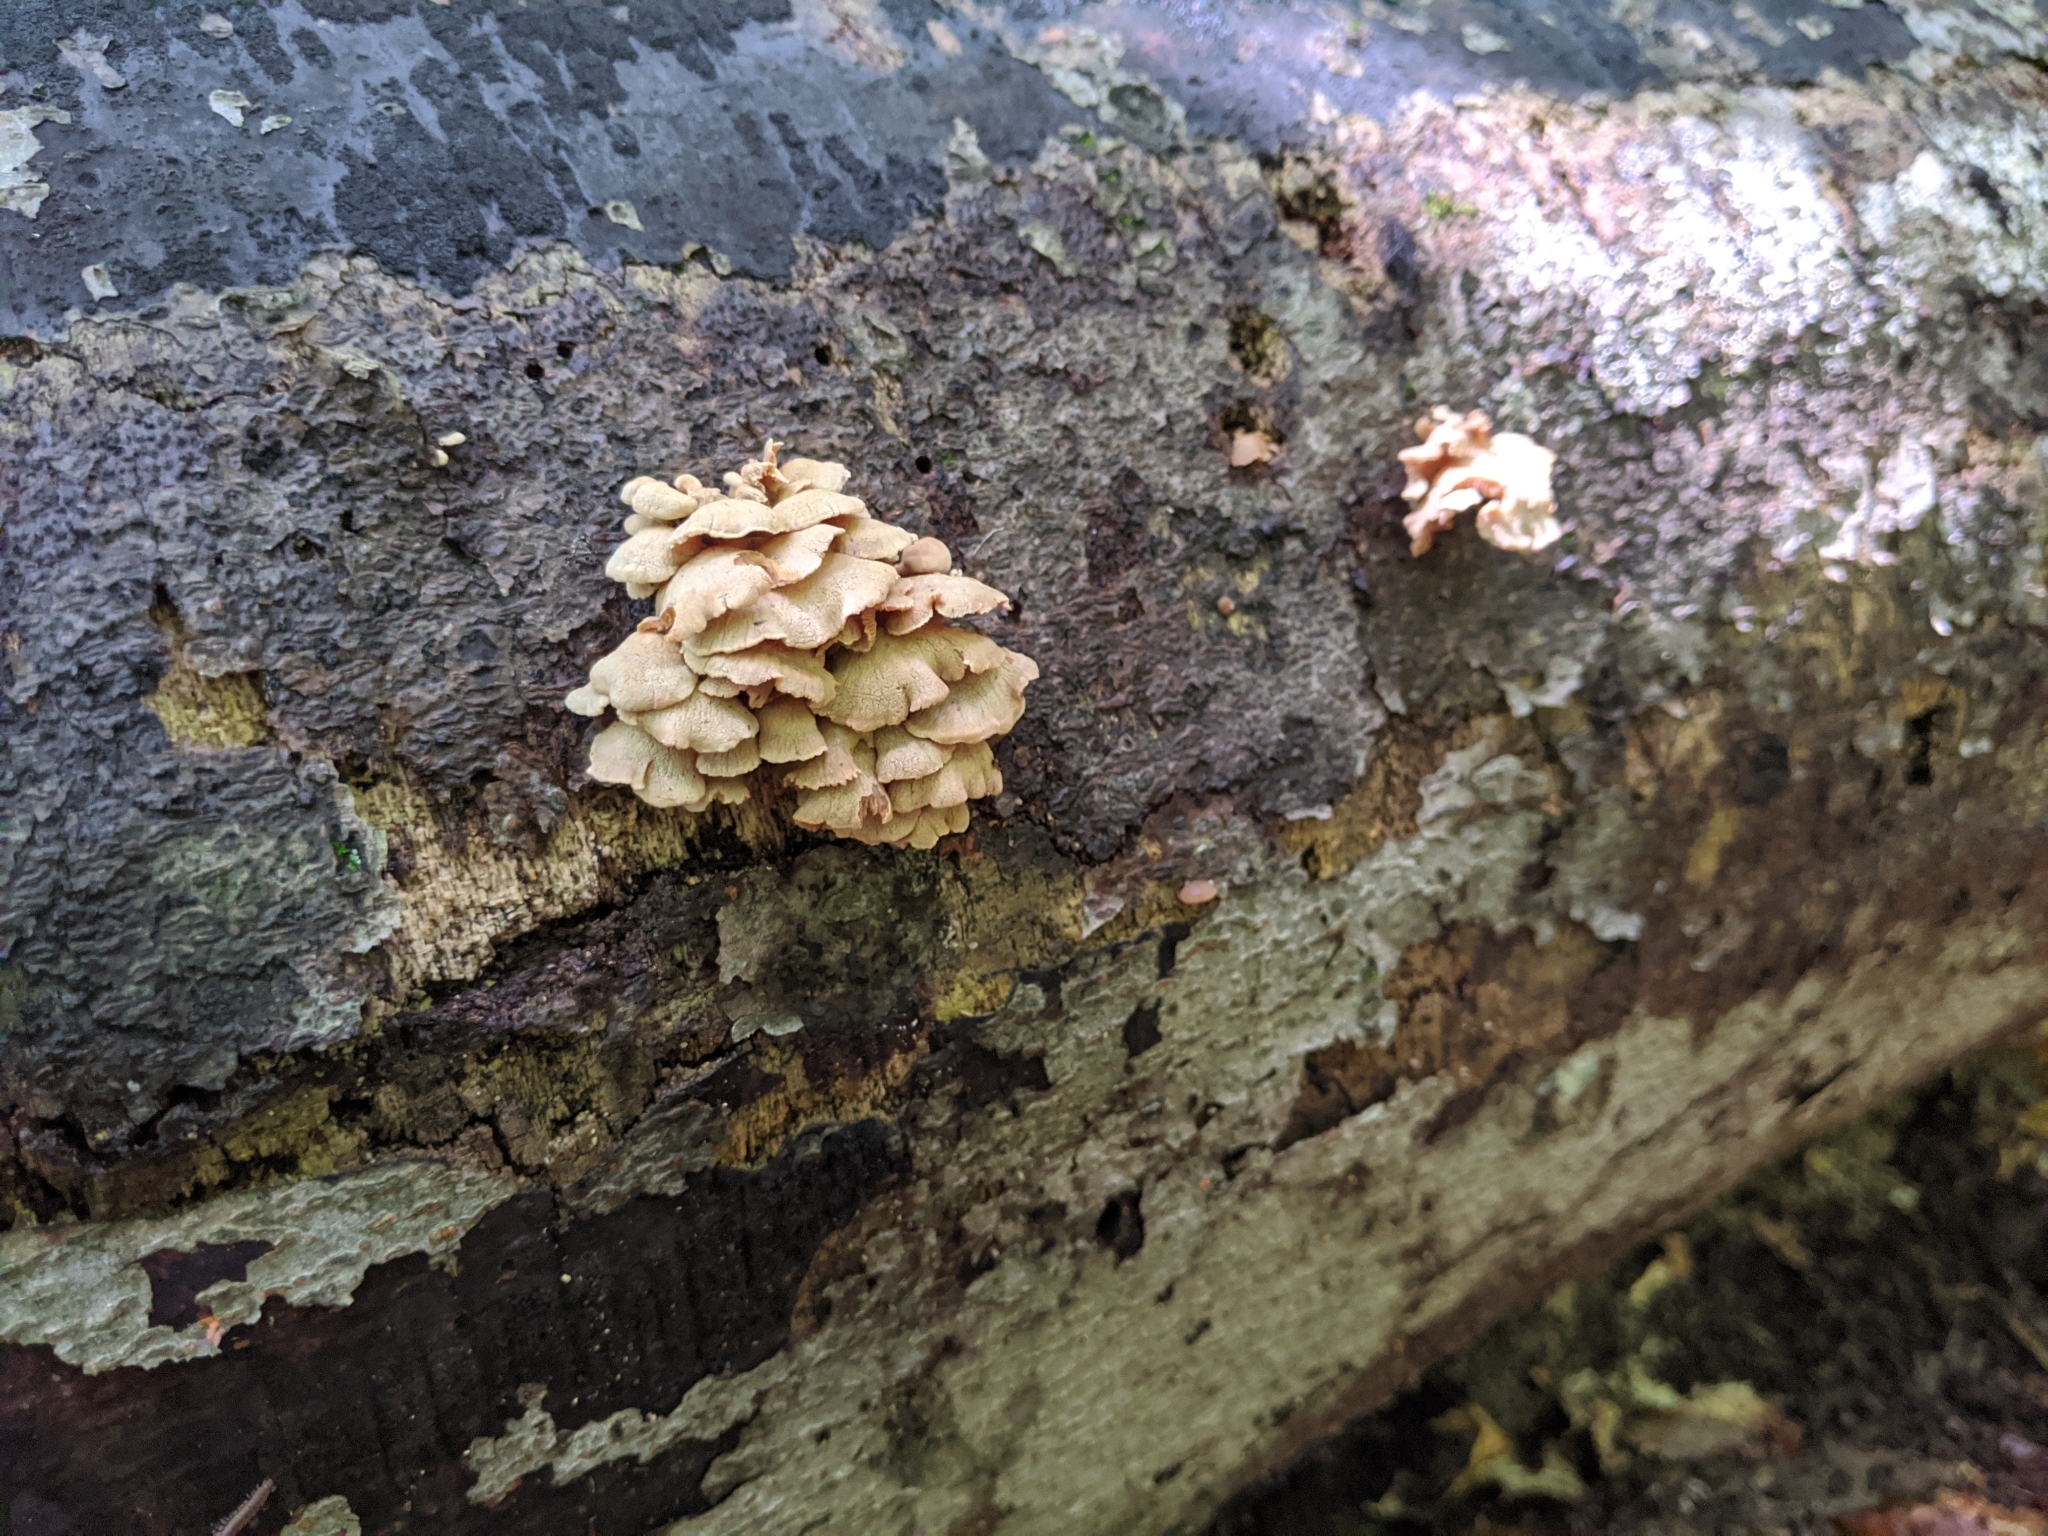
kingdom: Fungi
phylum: Basidiomycota
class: Agaricomycetes
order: Agaricales
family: Mycenaceae
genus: Panellus
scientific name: Panellus stipticus
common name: Bitter oysterling
